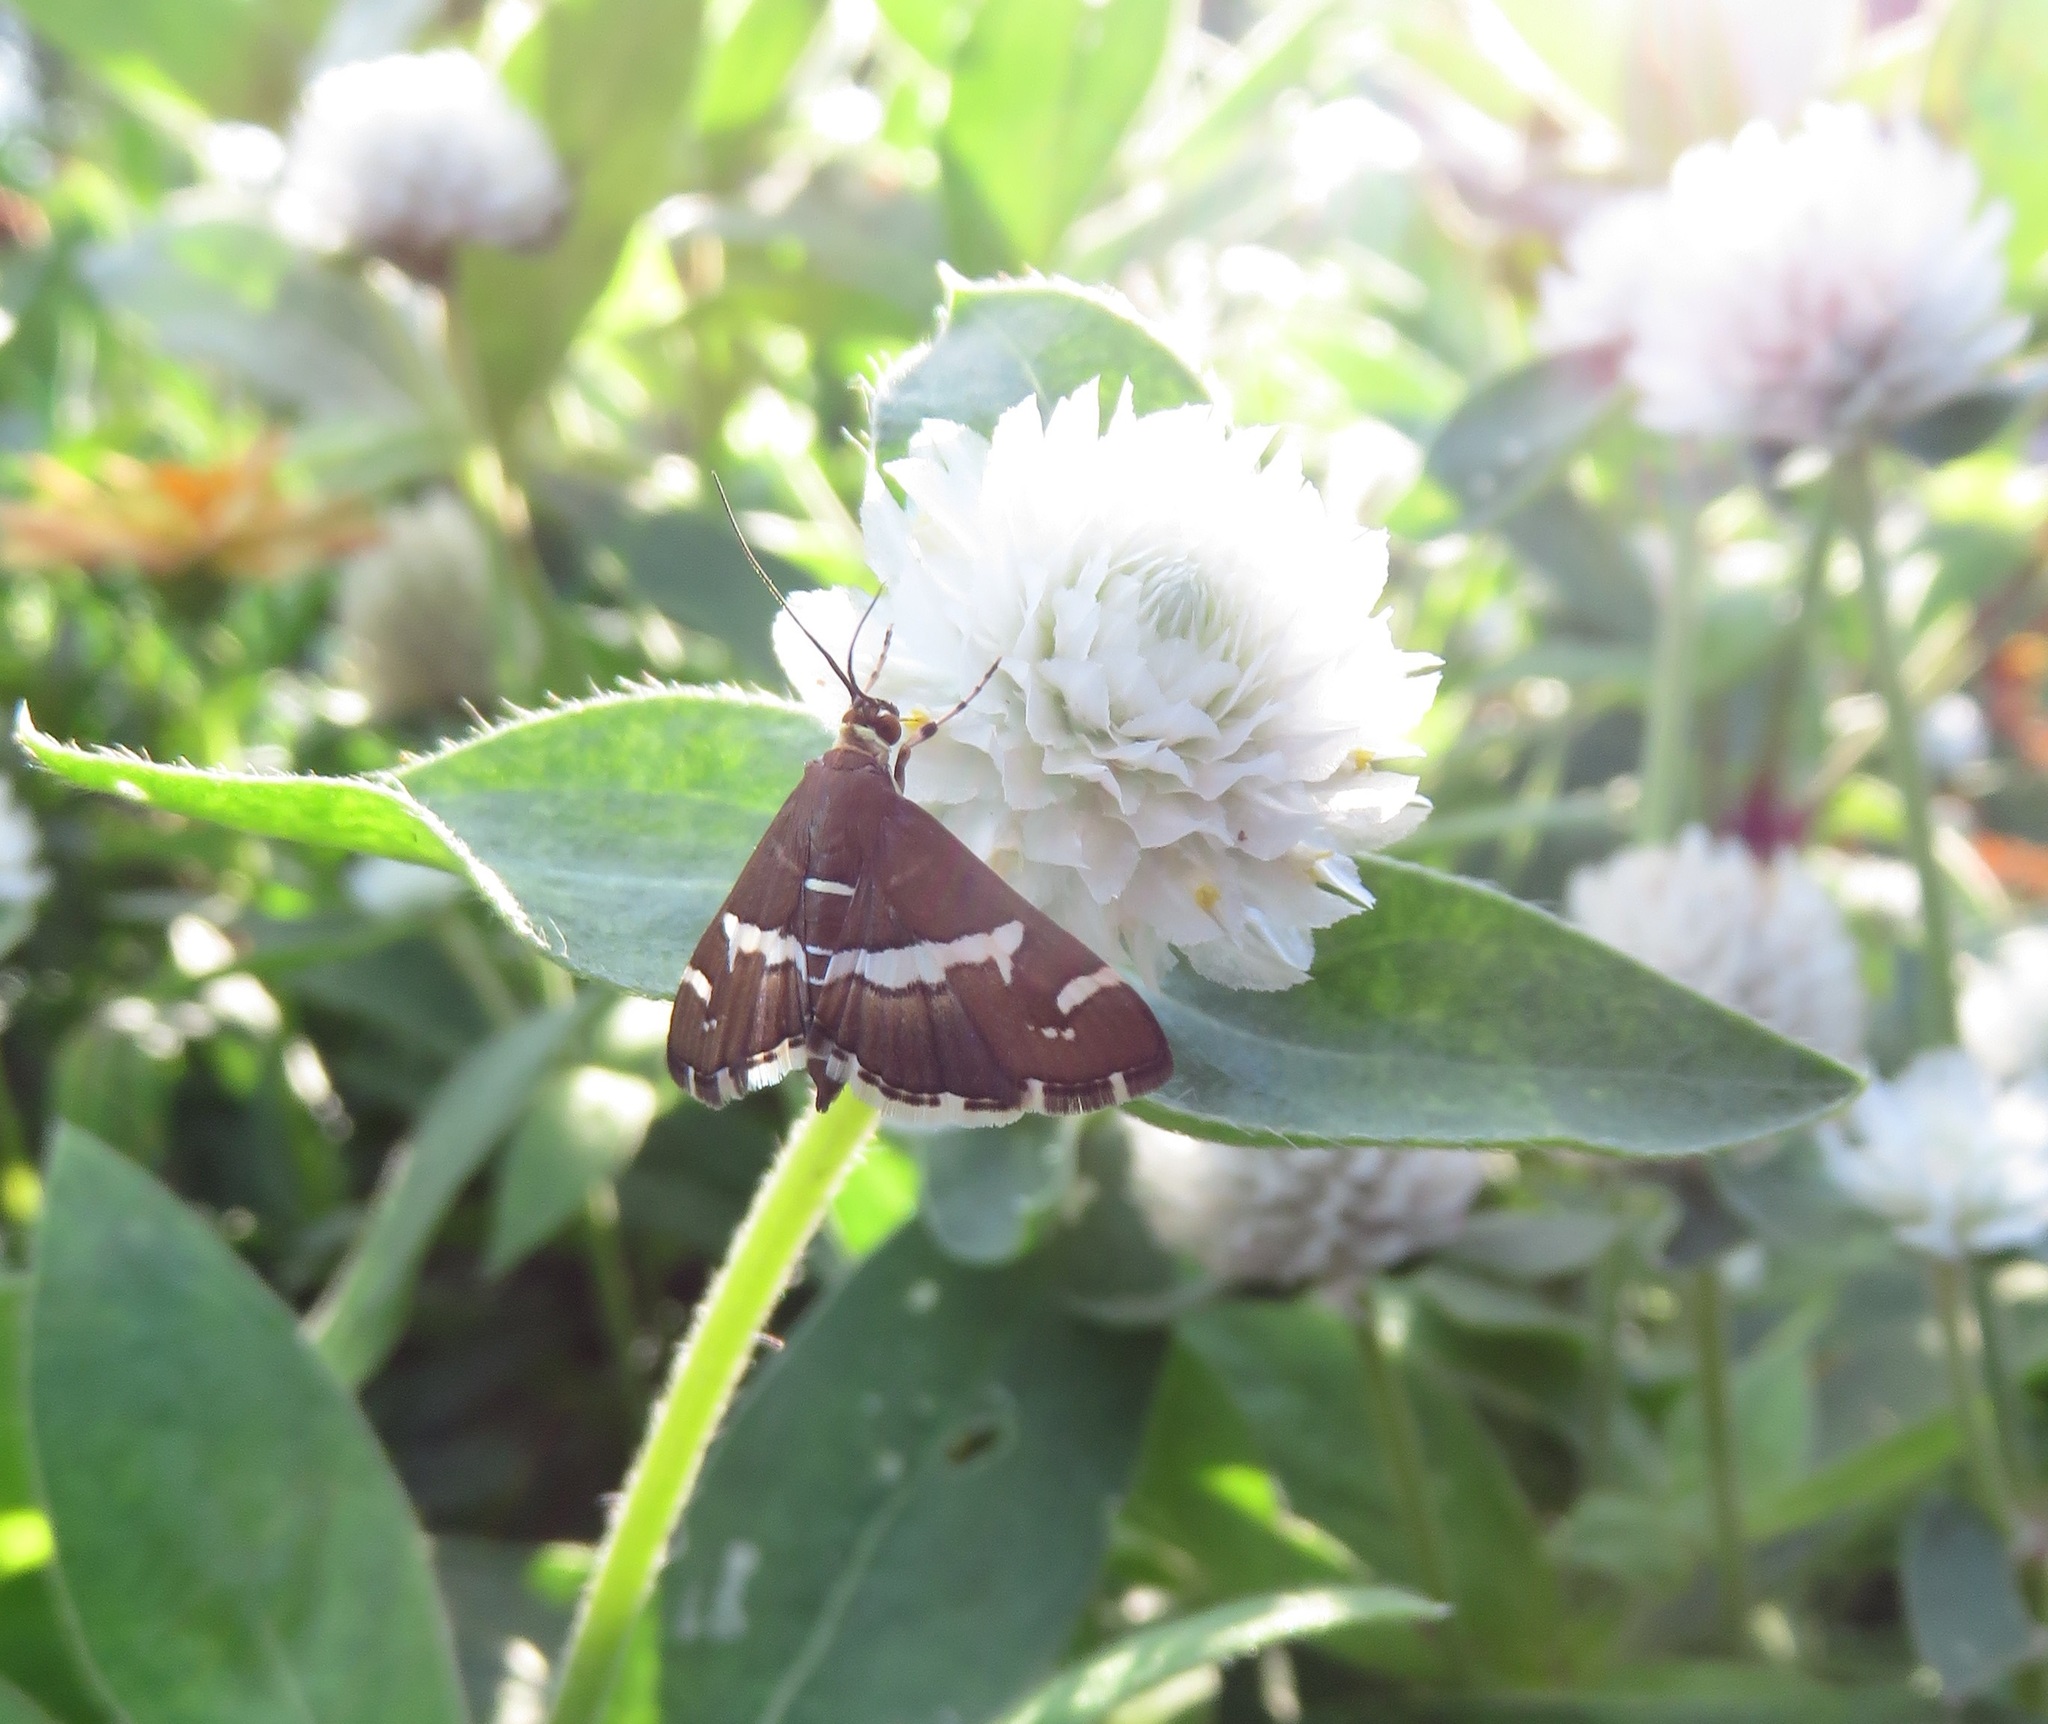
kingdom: Animalia
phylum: Arthropoda
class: Insecta
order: Lepidoptera
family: Crambidae
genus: Spoladea
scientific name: Spoladea recurvalis
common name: Beet webworm moth
